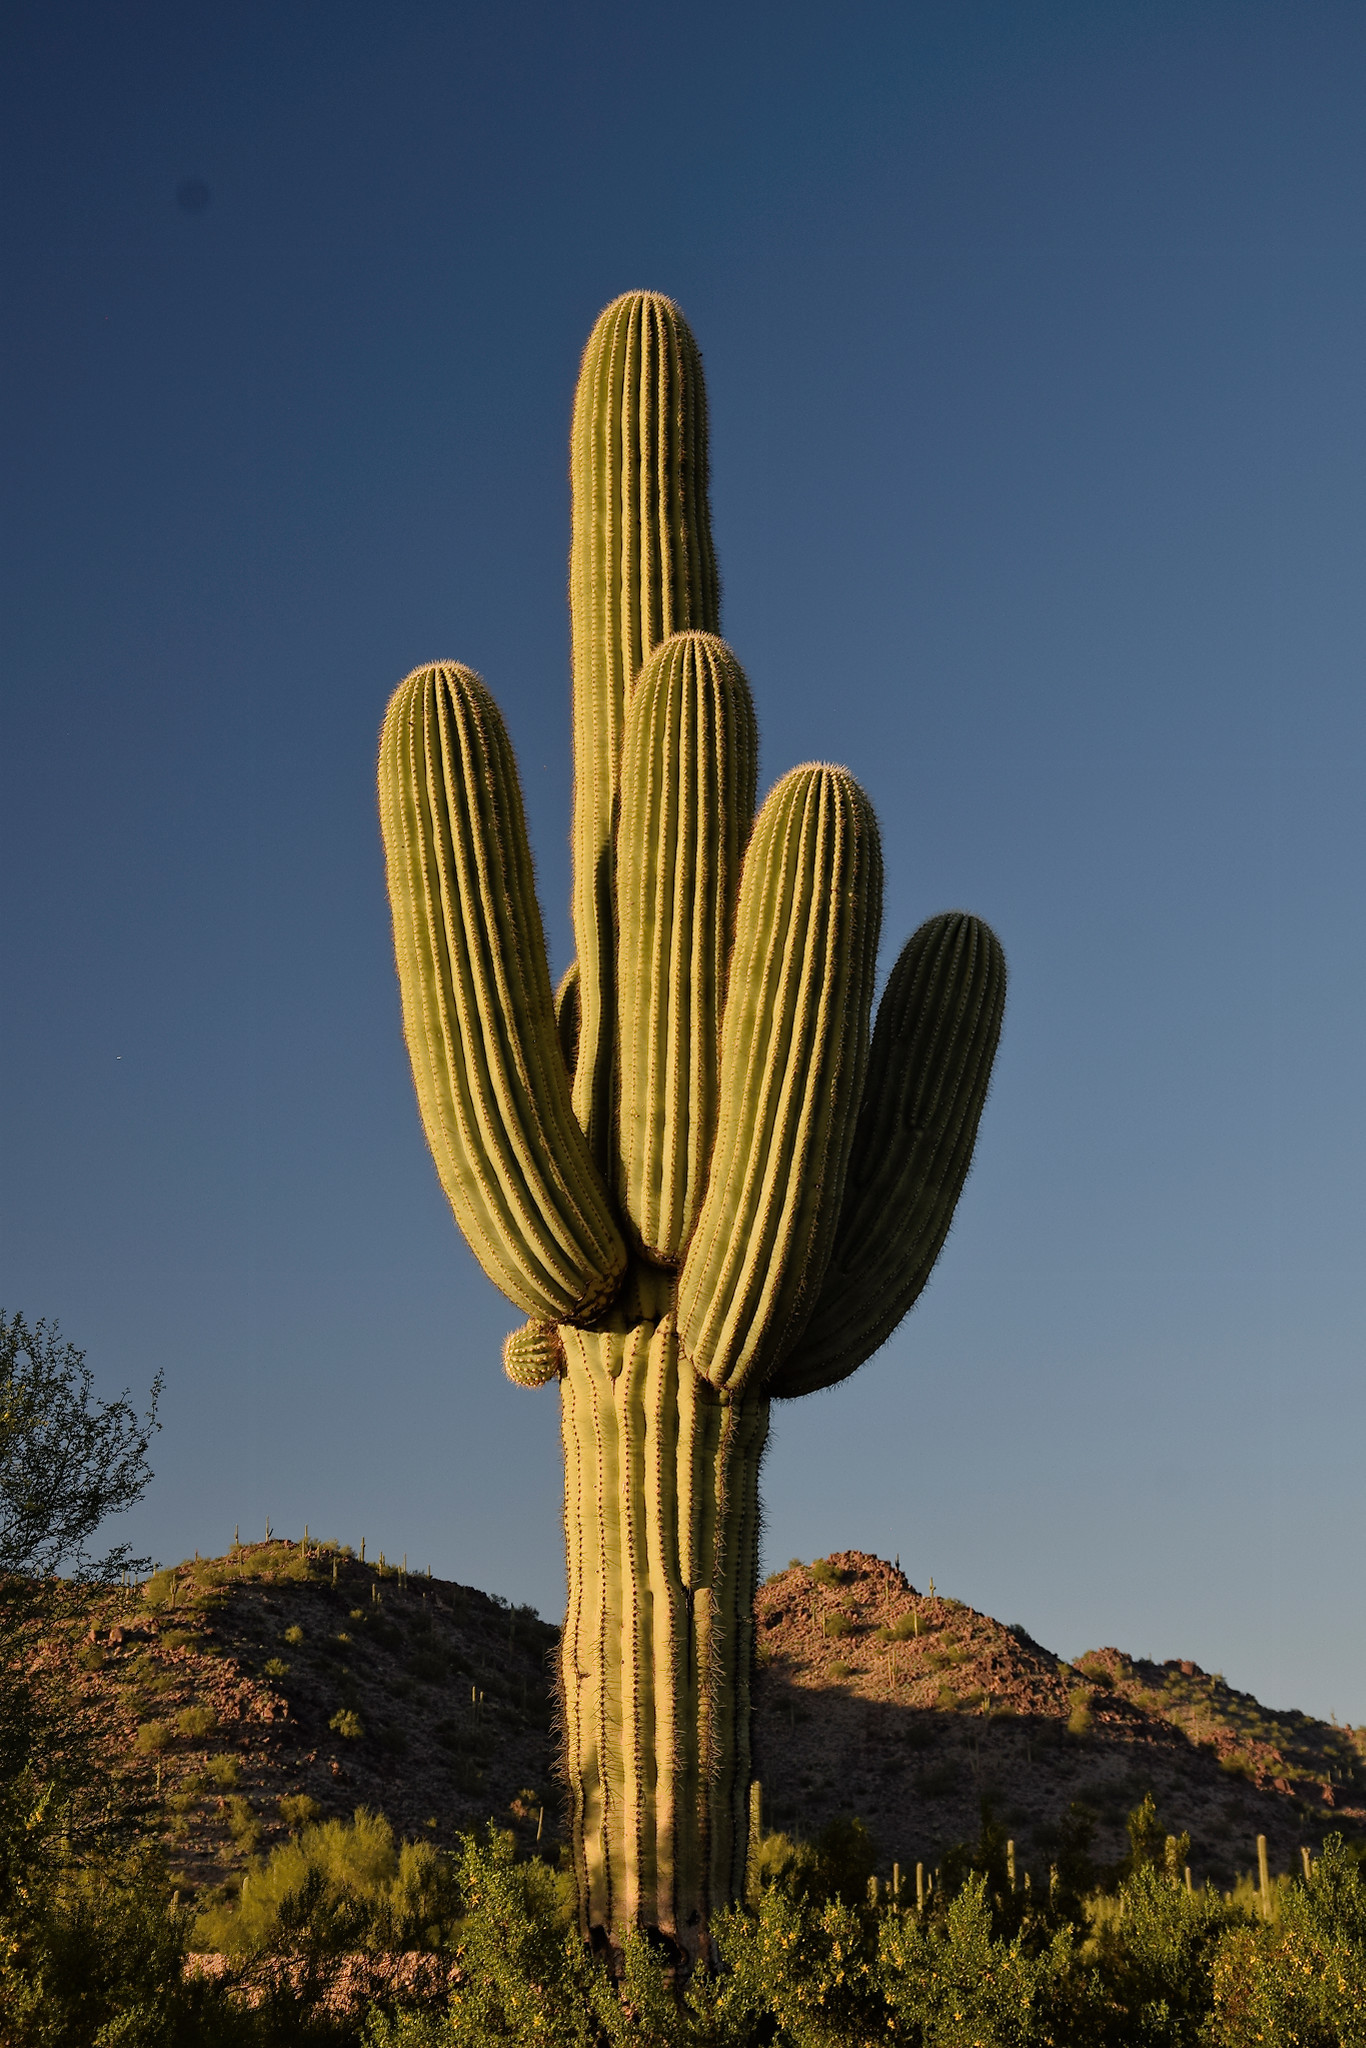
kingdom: Plantae
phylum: Tracheophyta
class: Magnoliopsida
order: Caryophyllales
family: Cactaceae
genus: Carnegiea
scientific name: Carnegiea gigantea
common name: Saguaro
